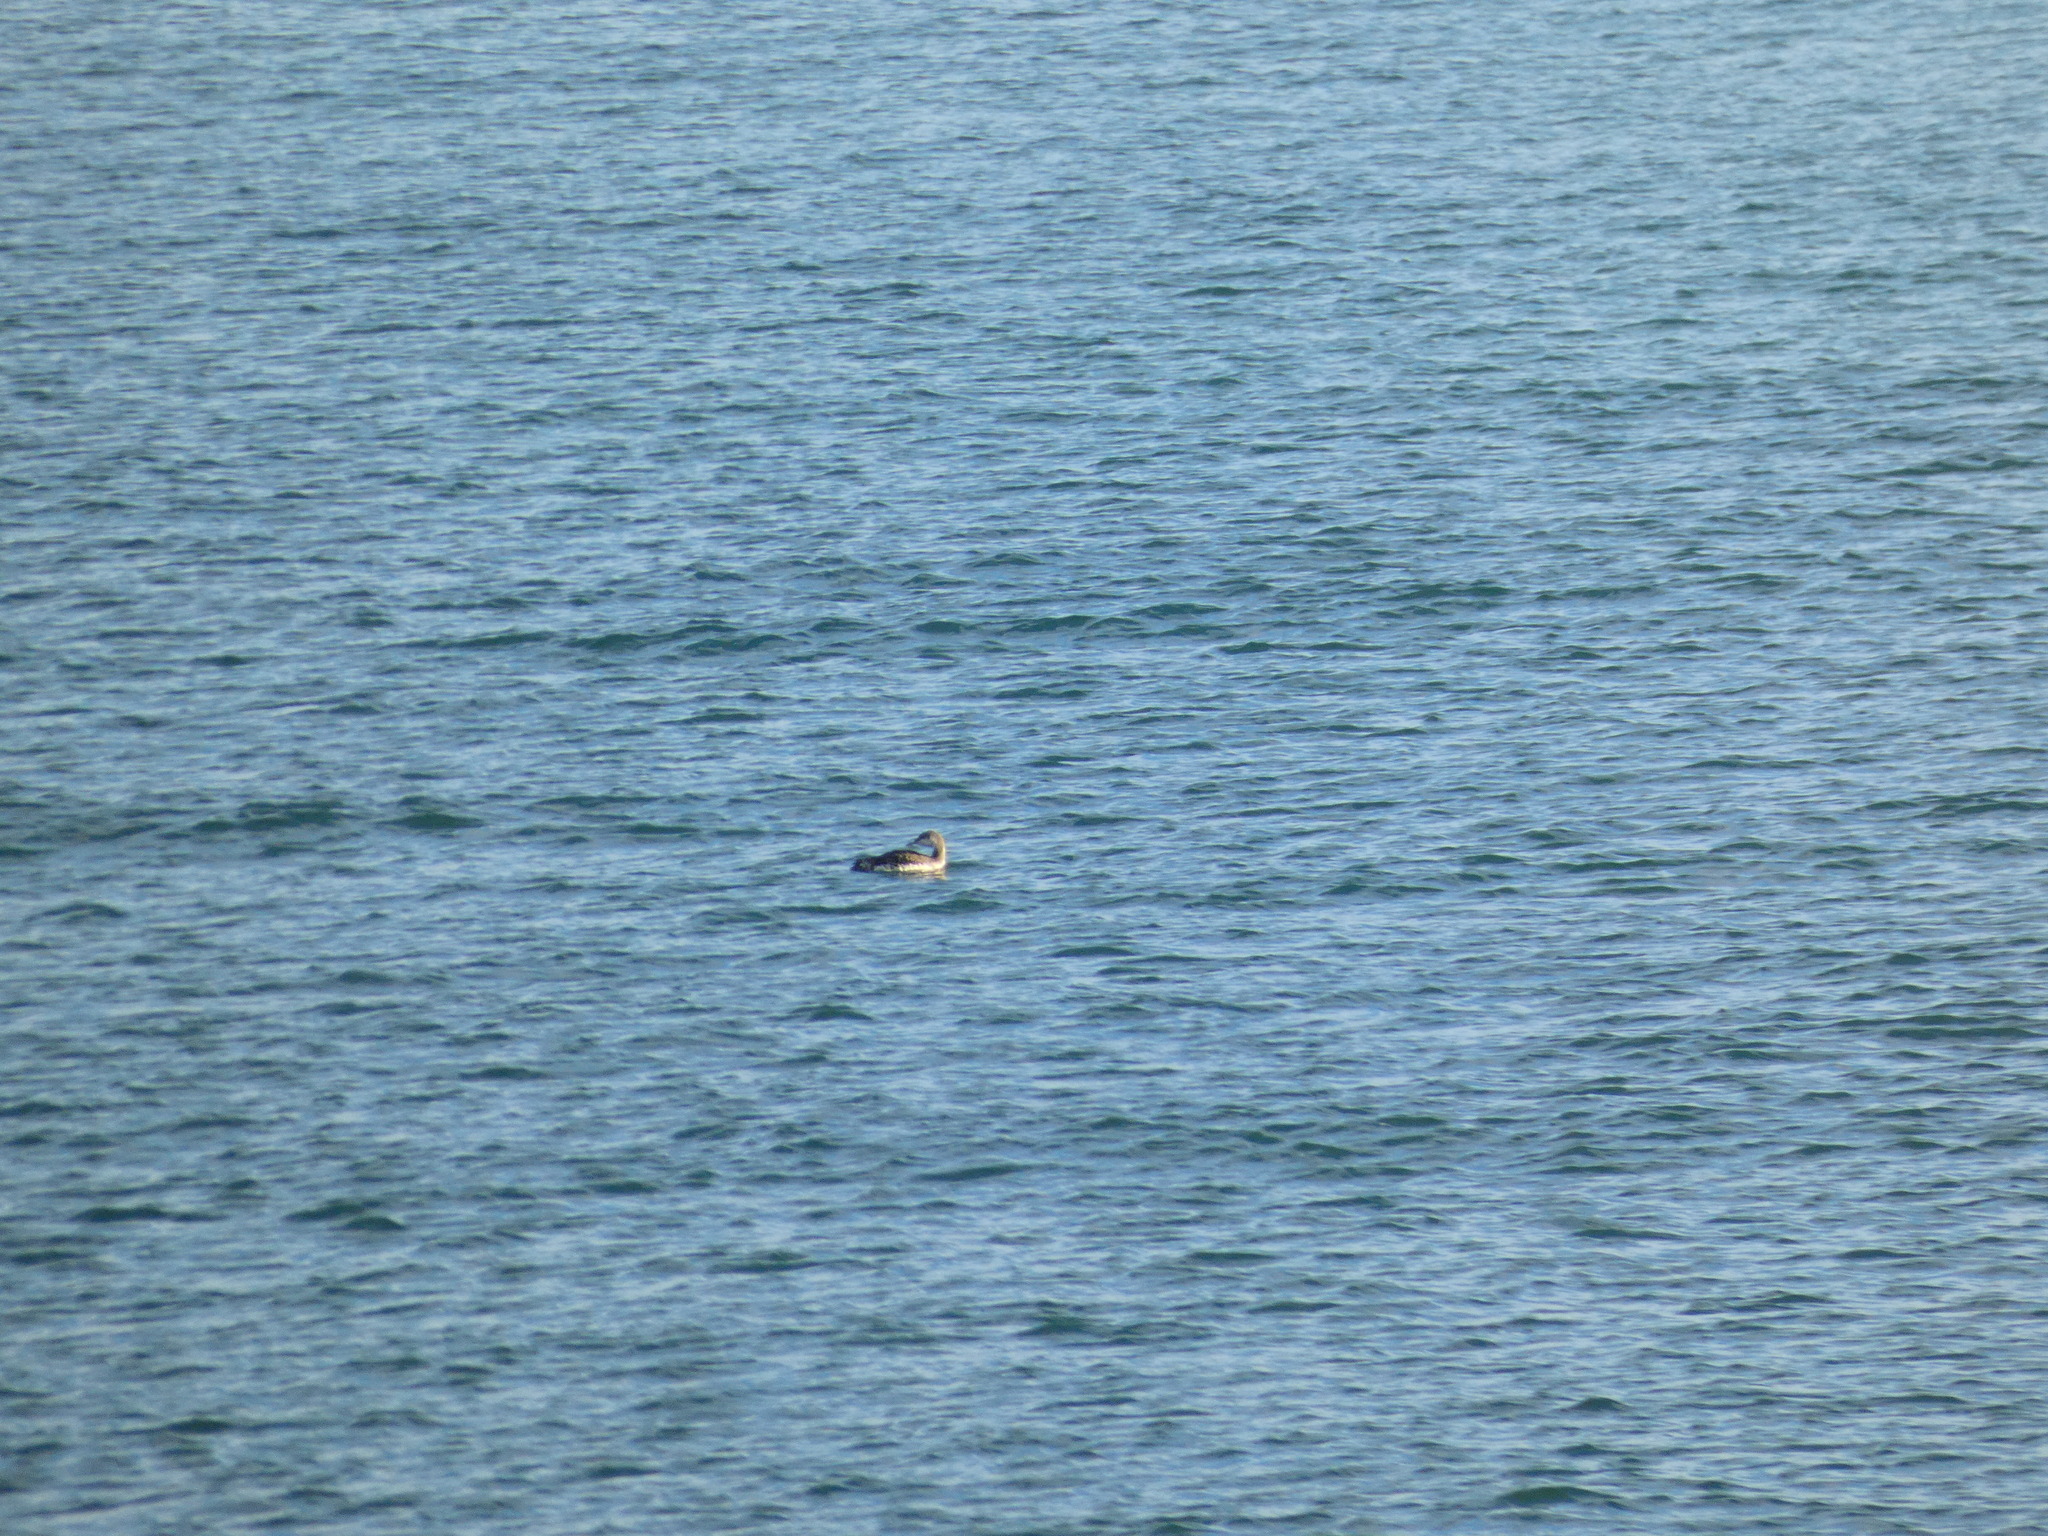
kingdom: Animalia
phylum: Chordata
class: Aves
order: Gaviiformes
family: Gaviidae
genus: Gavia
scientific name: Gavia stellata
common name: Red-throated loon
